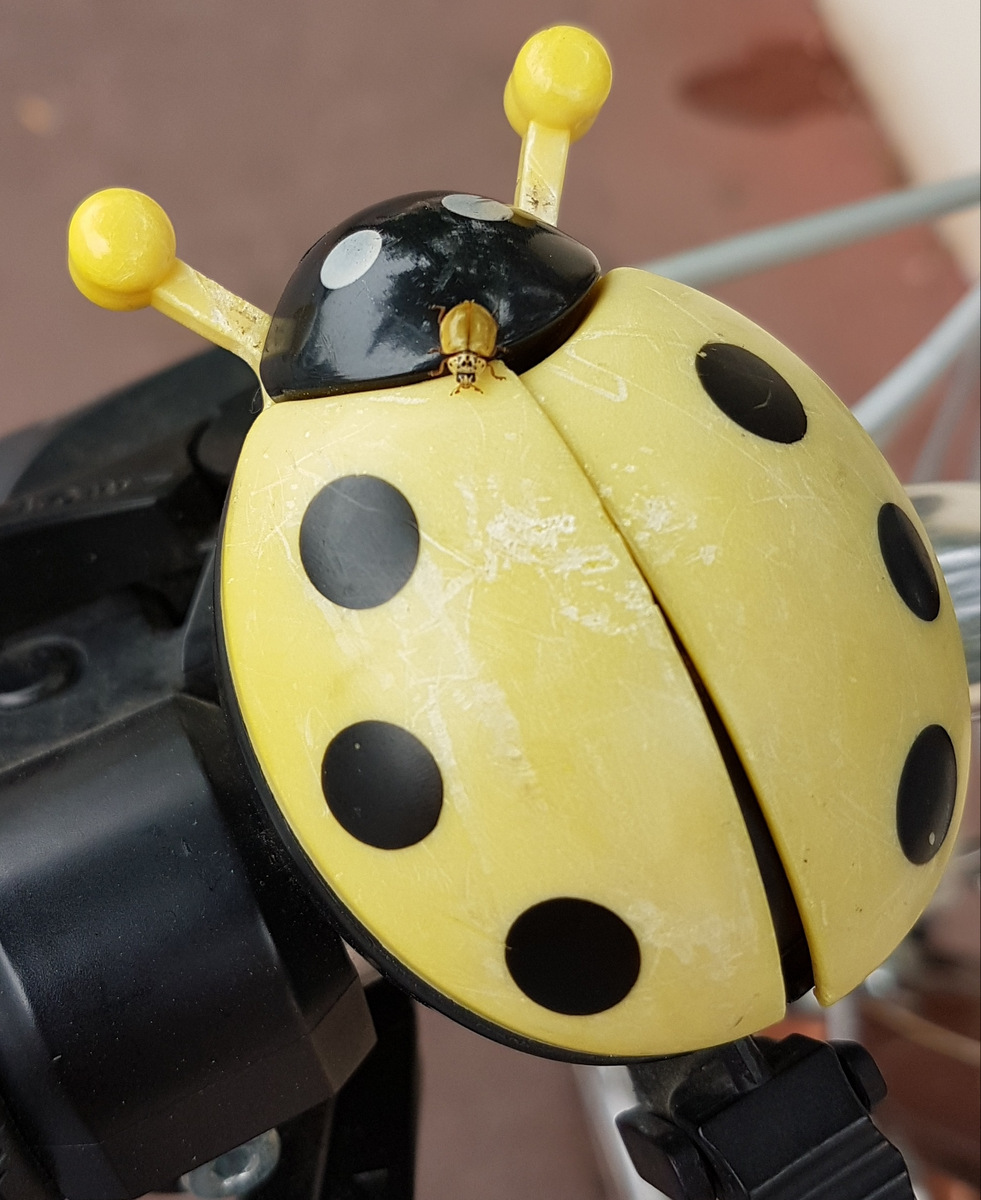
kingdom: Animalia
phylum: Arthropoda
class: Insecta
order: Coleoptera
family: Coccinellidae
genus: Harmonia
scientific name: Harmonia quadripunctata
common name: Cream-streaked ladybird
